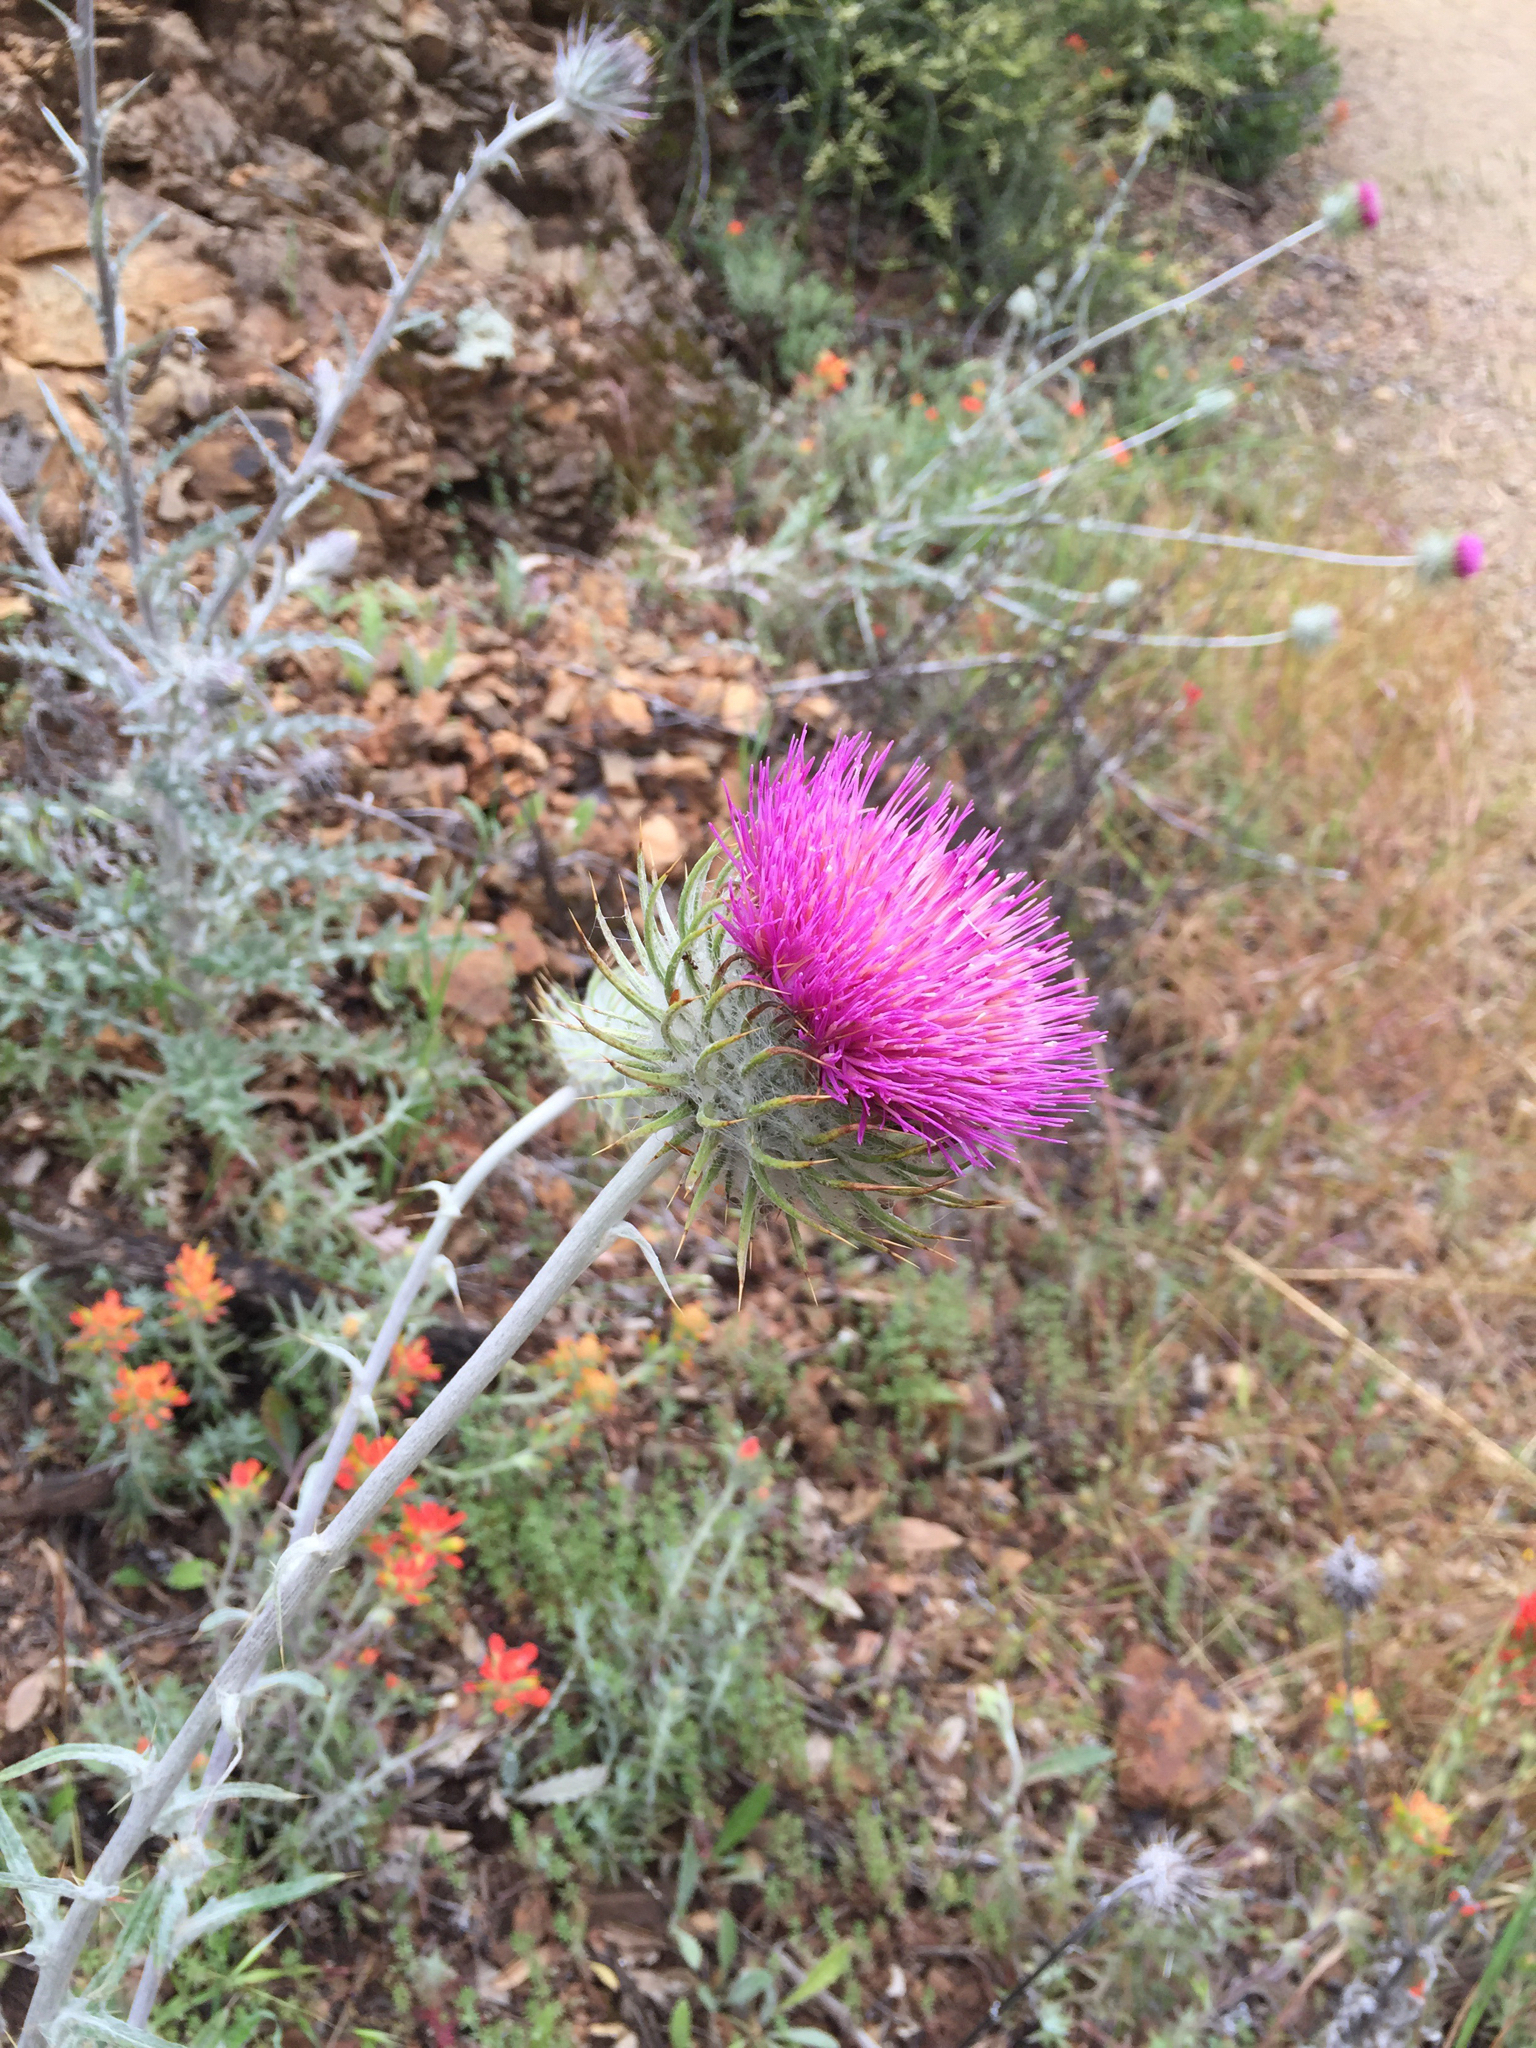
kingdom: Plantae
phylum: Tracheophyta
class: Magnoliopsida
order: Asterales
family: Asteraceae
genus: Cirsium
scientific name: Cirsium occidentale
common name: Western thistle
